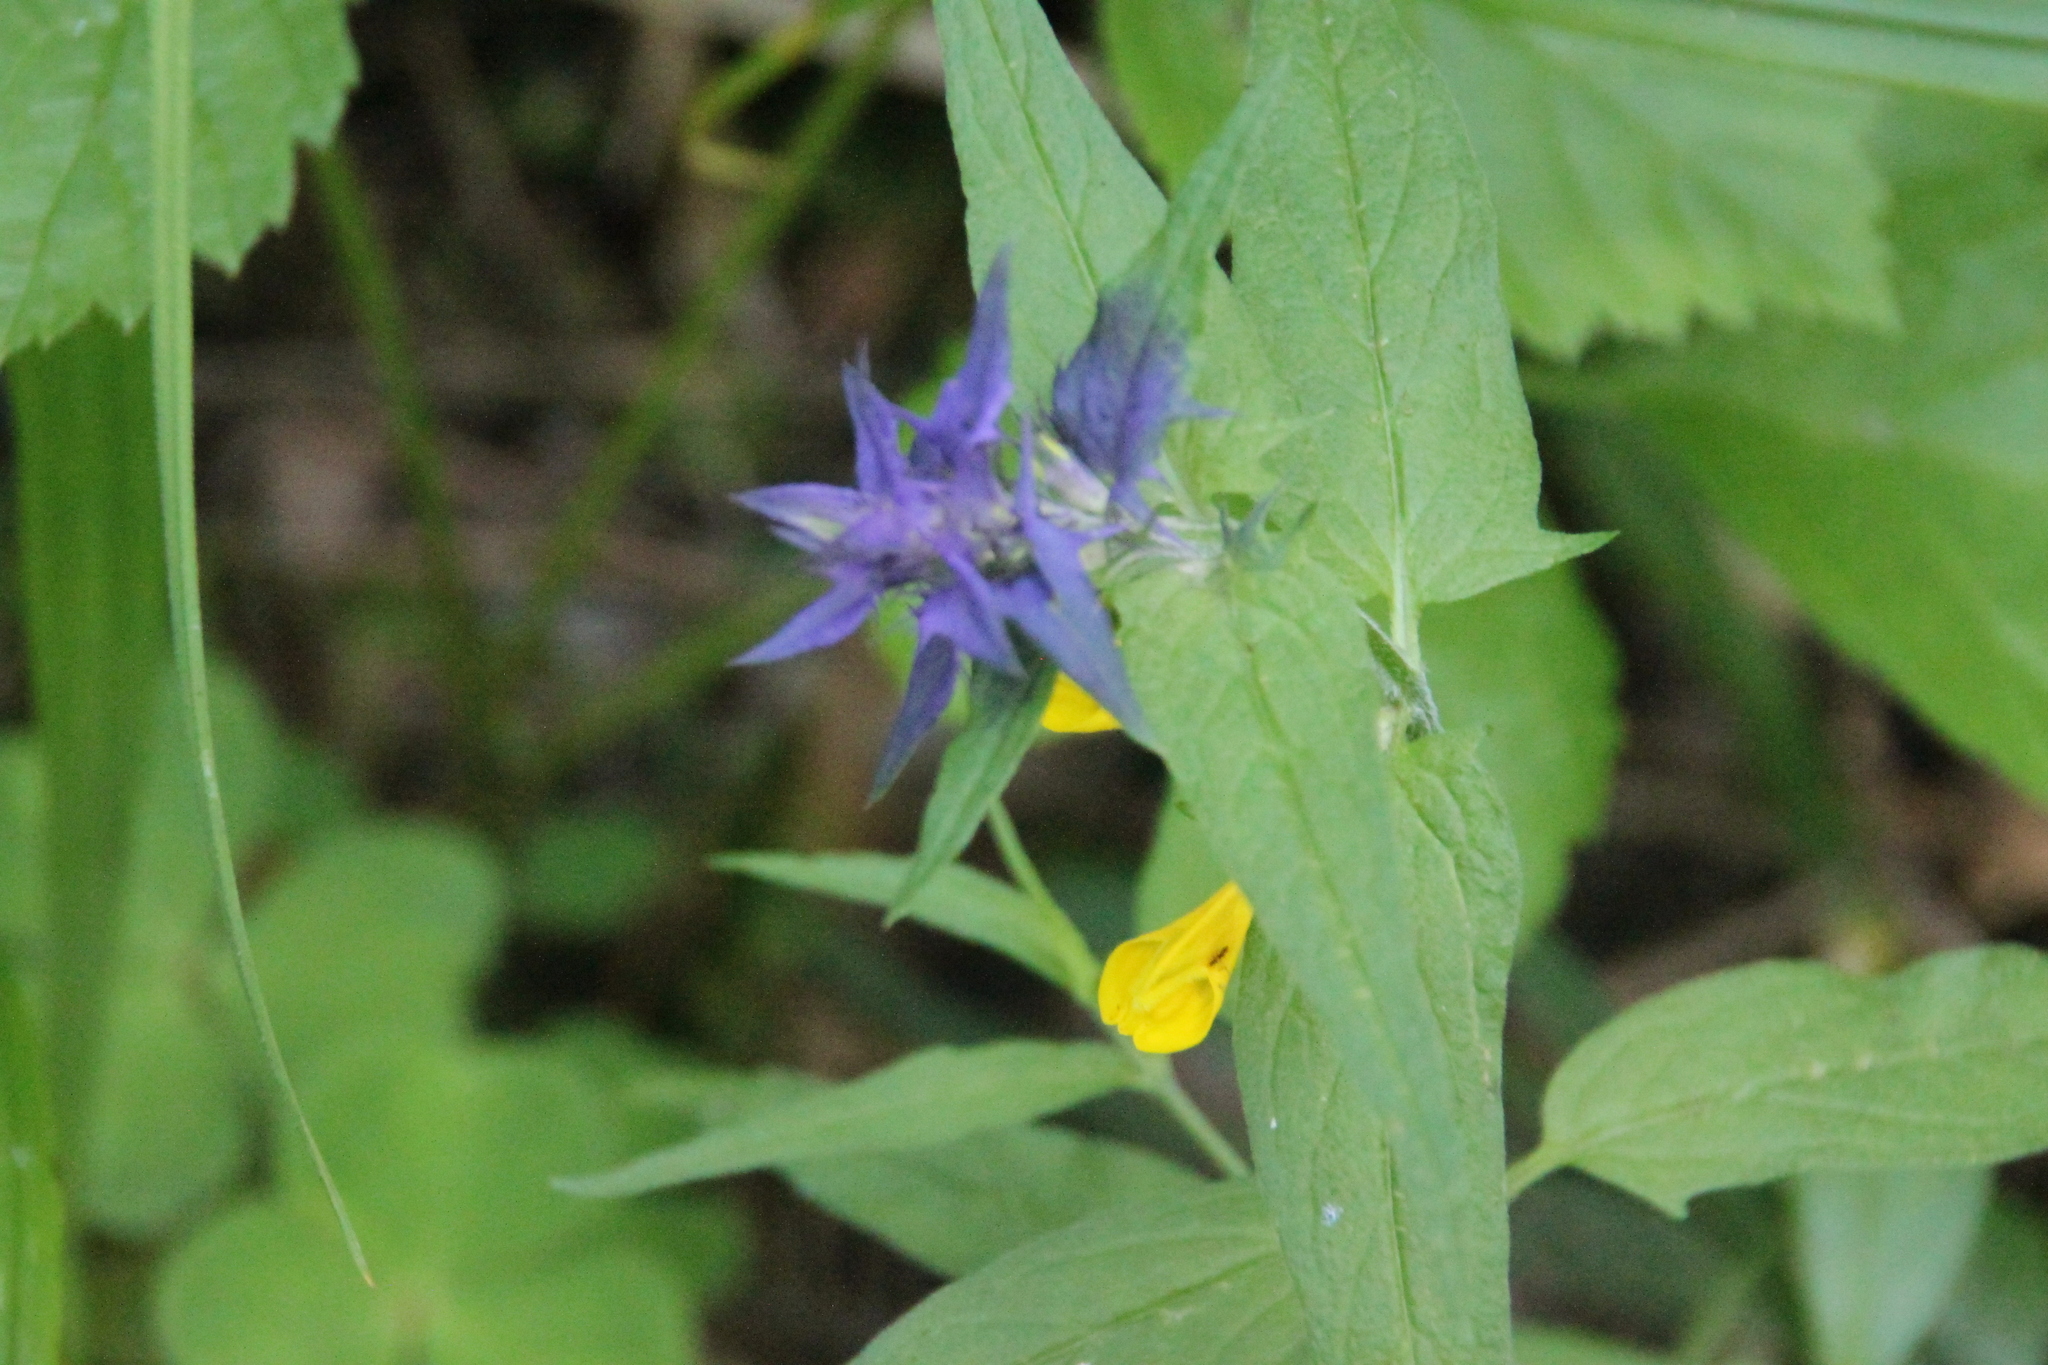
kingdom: Plantae
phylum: Tracheophyta
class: Magnoliopsida
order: Lamiales
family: Orobanchaceae
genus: Melampyrum
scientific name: Melampyrum nemorosum
